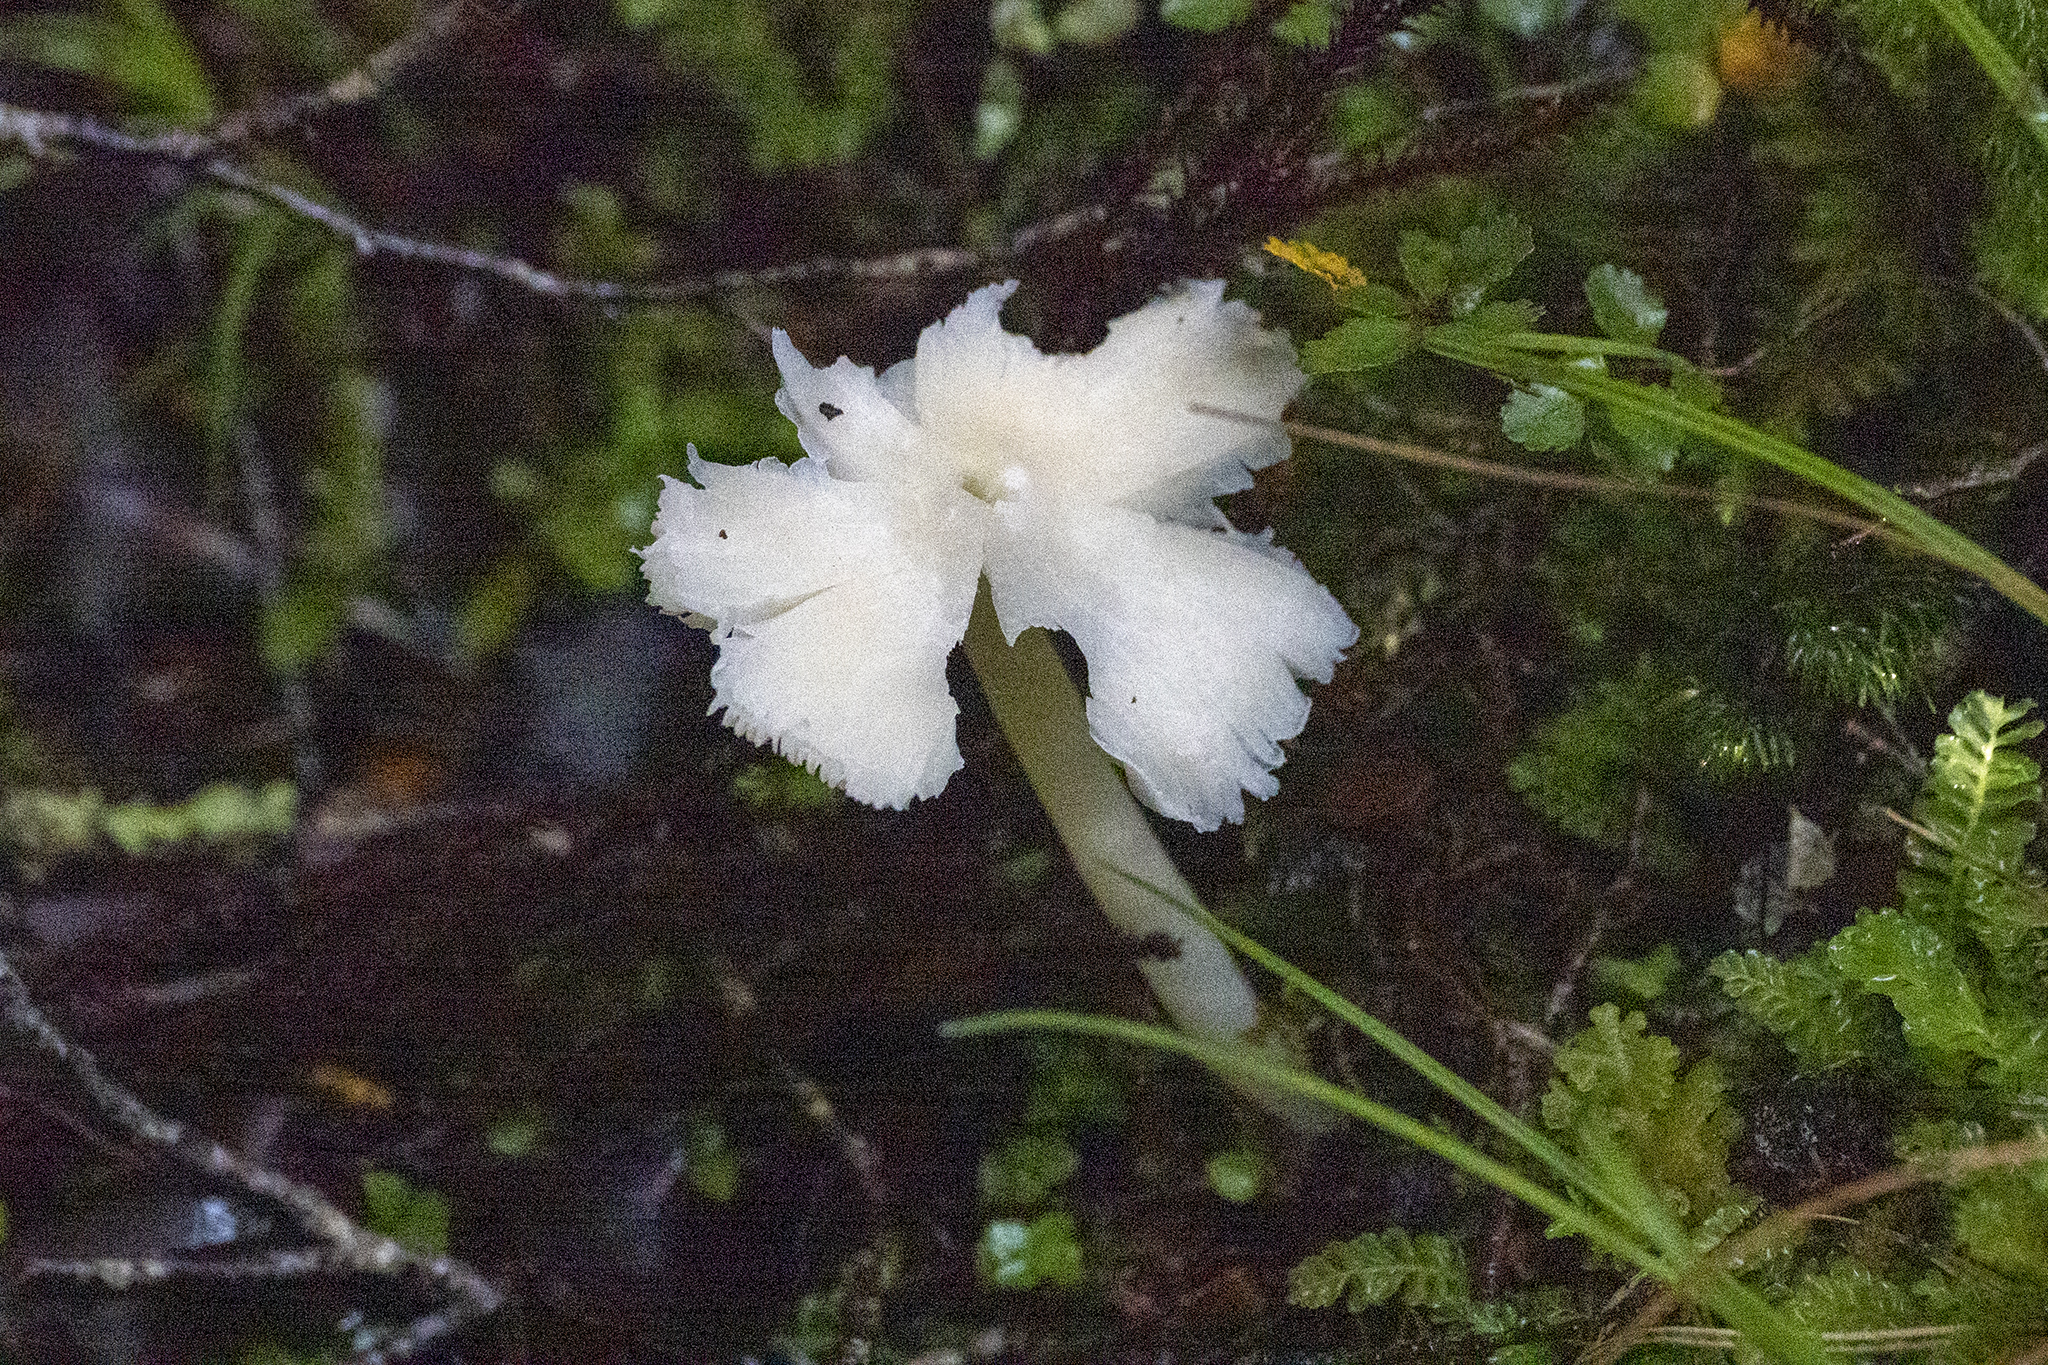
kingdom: Fungi
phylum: Basidiomycota
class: Agaricomycetes
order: Agaricales
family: Hygrophoraceae
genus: Humidicutis
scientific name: Humidicutis mavis
